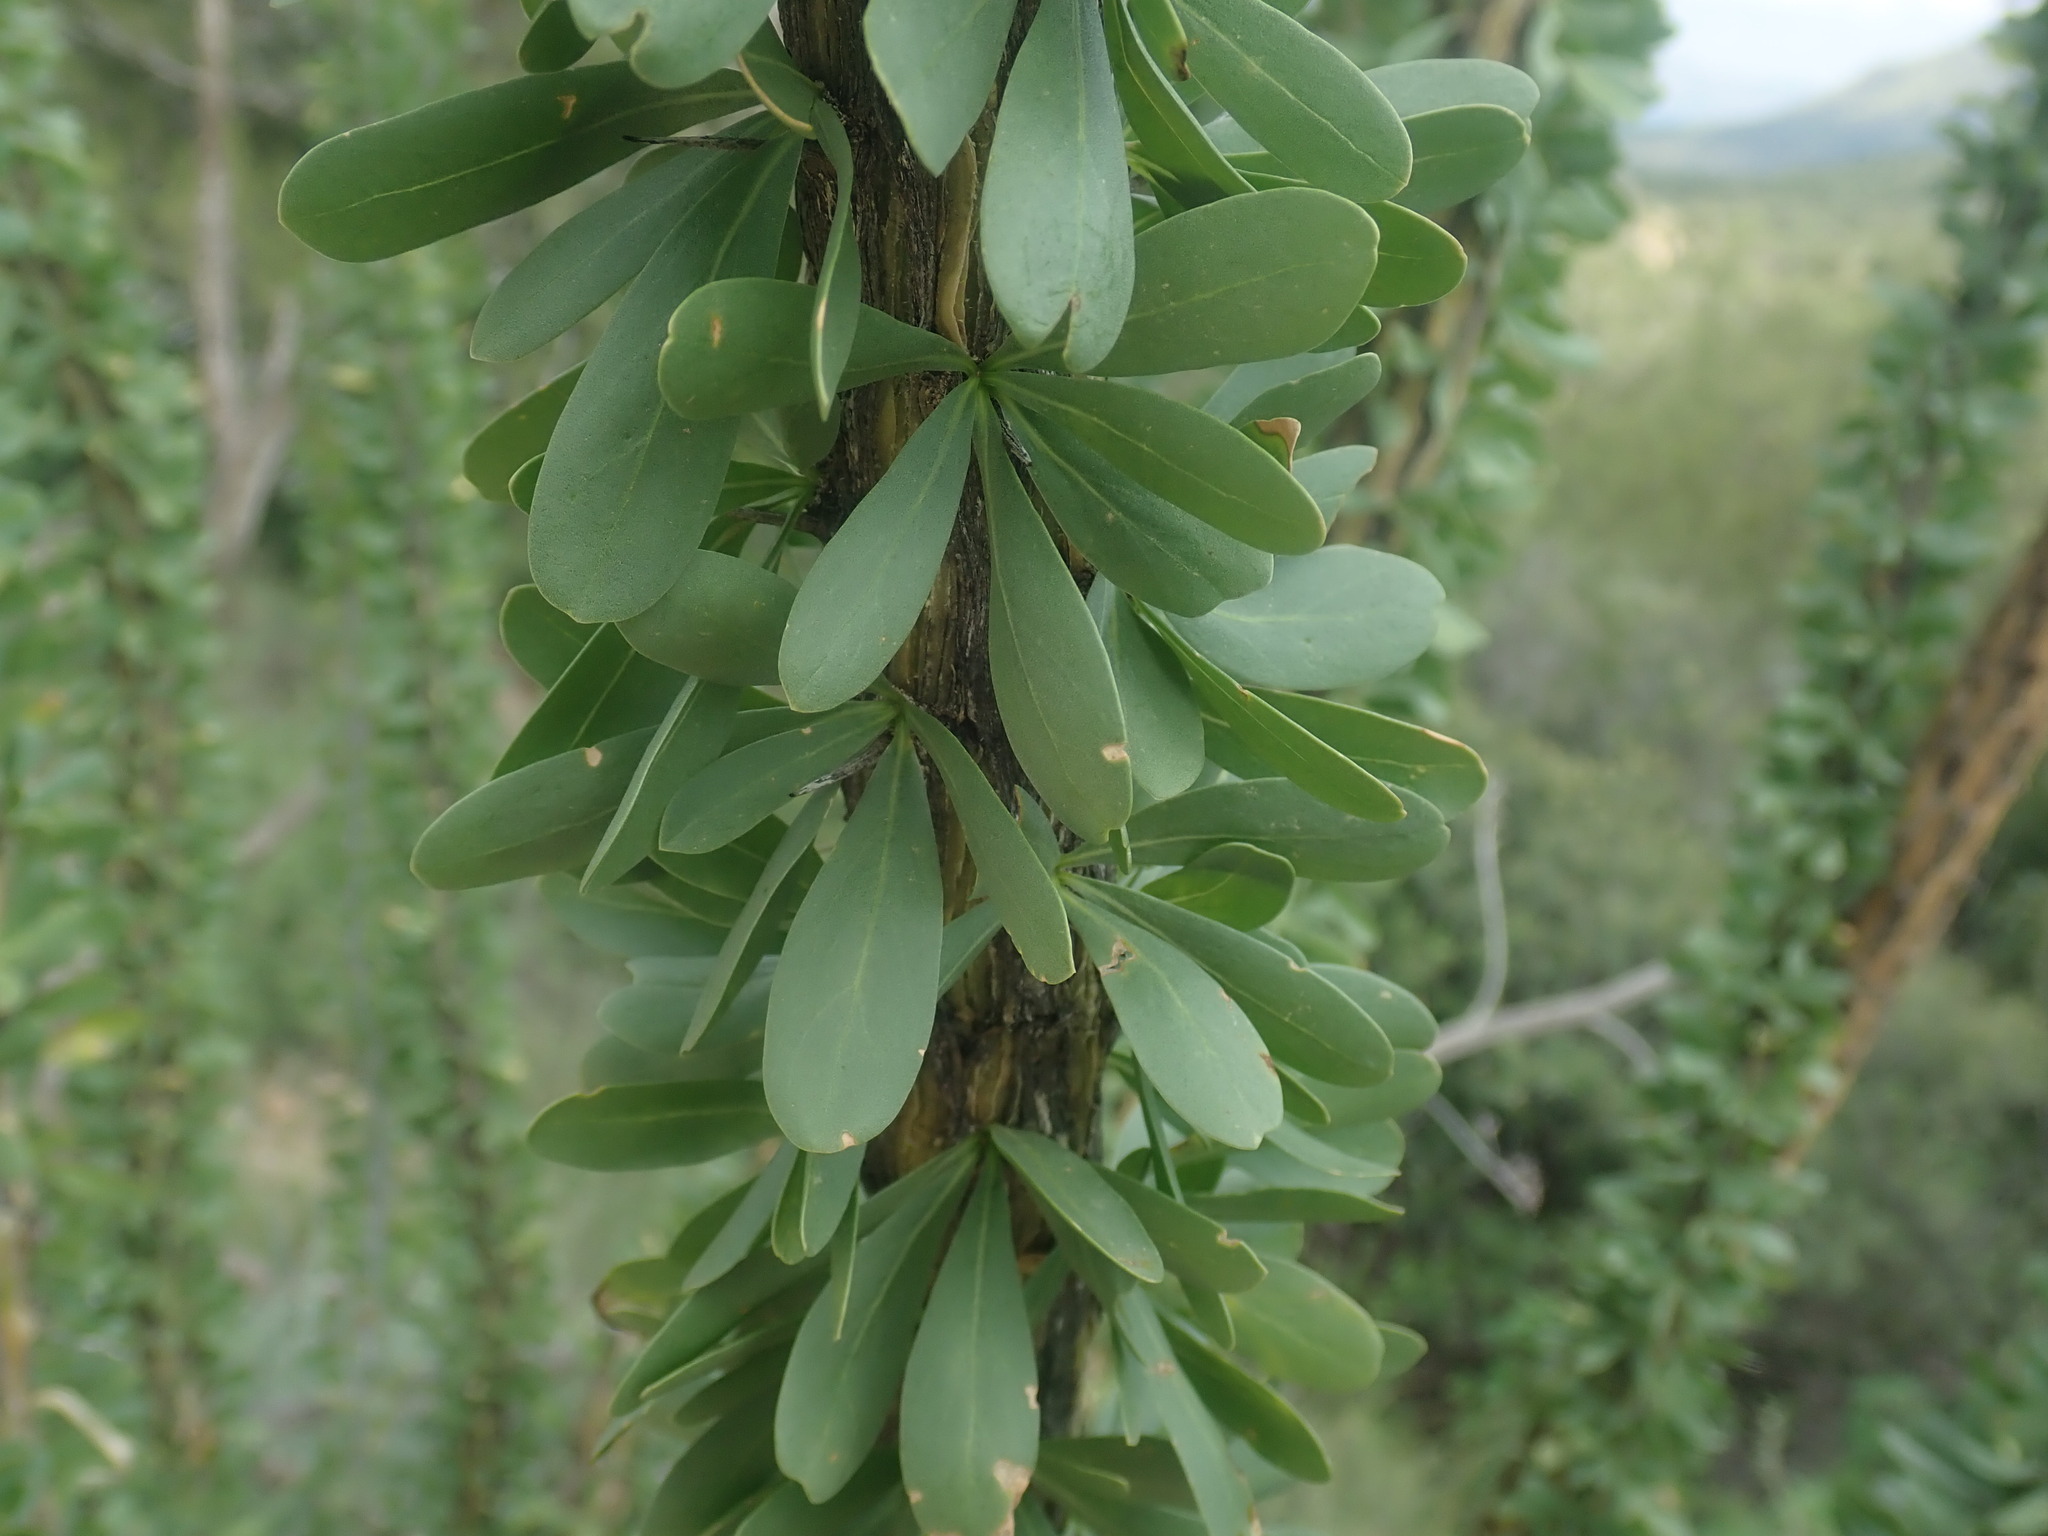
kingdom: Plantae
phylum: Tracheophyta
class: Magnoliopsida
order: Ericales
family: Fouquieriaceae
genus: Fouquieria
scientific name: Fouquieria splendens
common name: Vine-cactus
